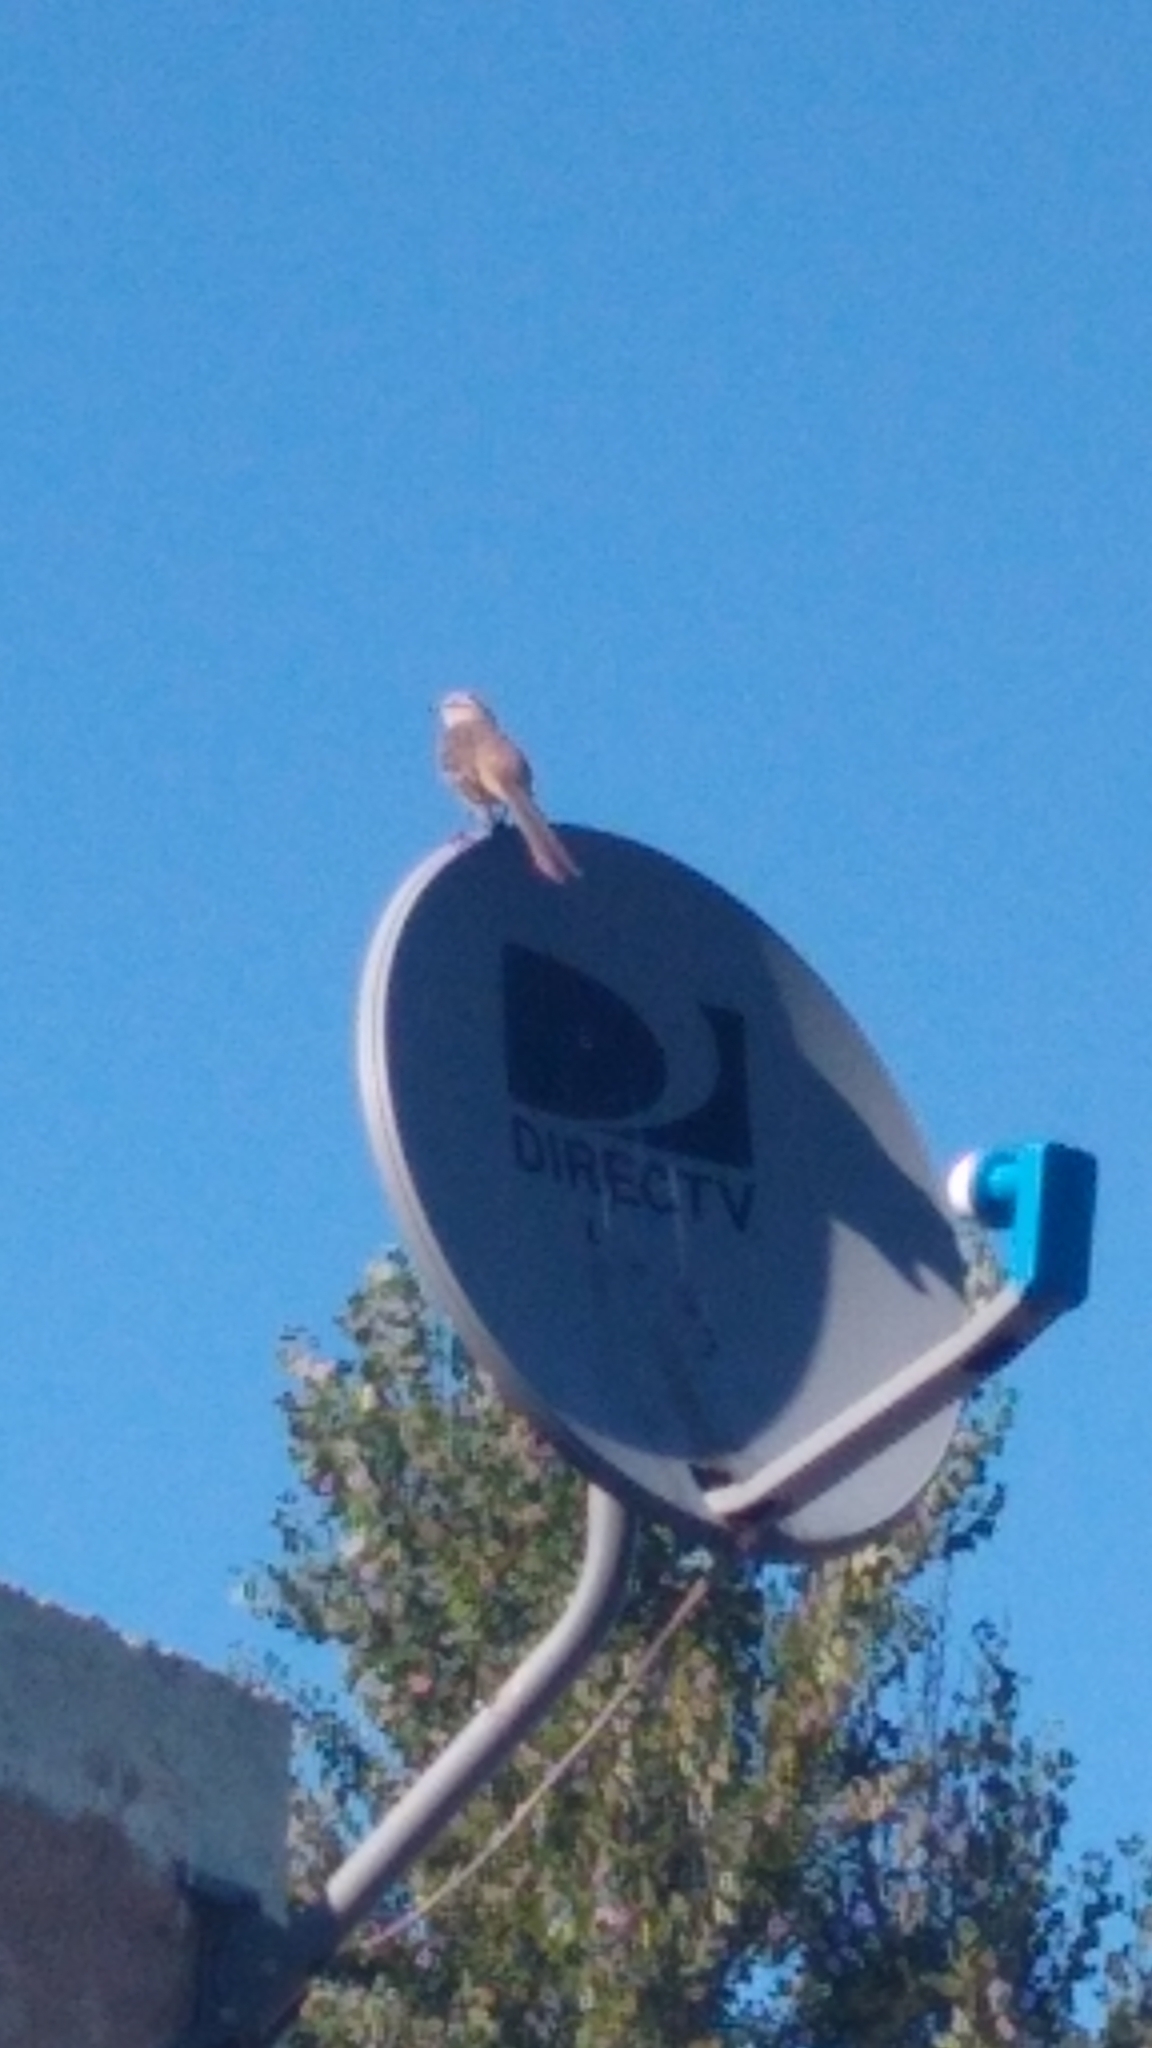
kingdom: Animalia
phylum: Chordata
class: Aves
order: Passeriformes
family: Mimidae
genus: Mimus
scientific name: Mimus saturninus
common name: Chalk-browed mockingbird
